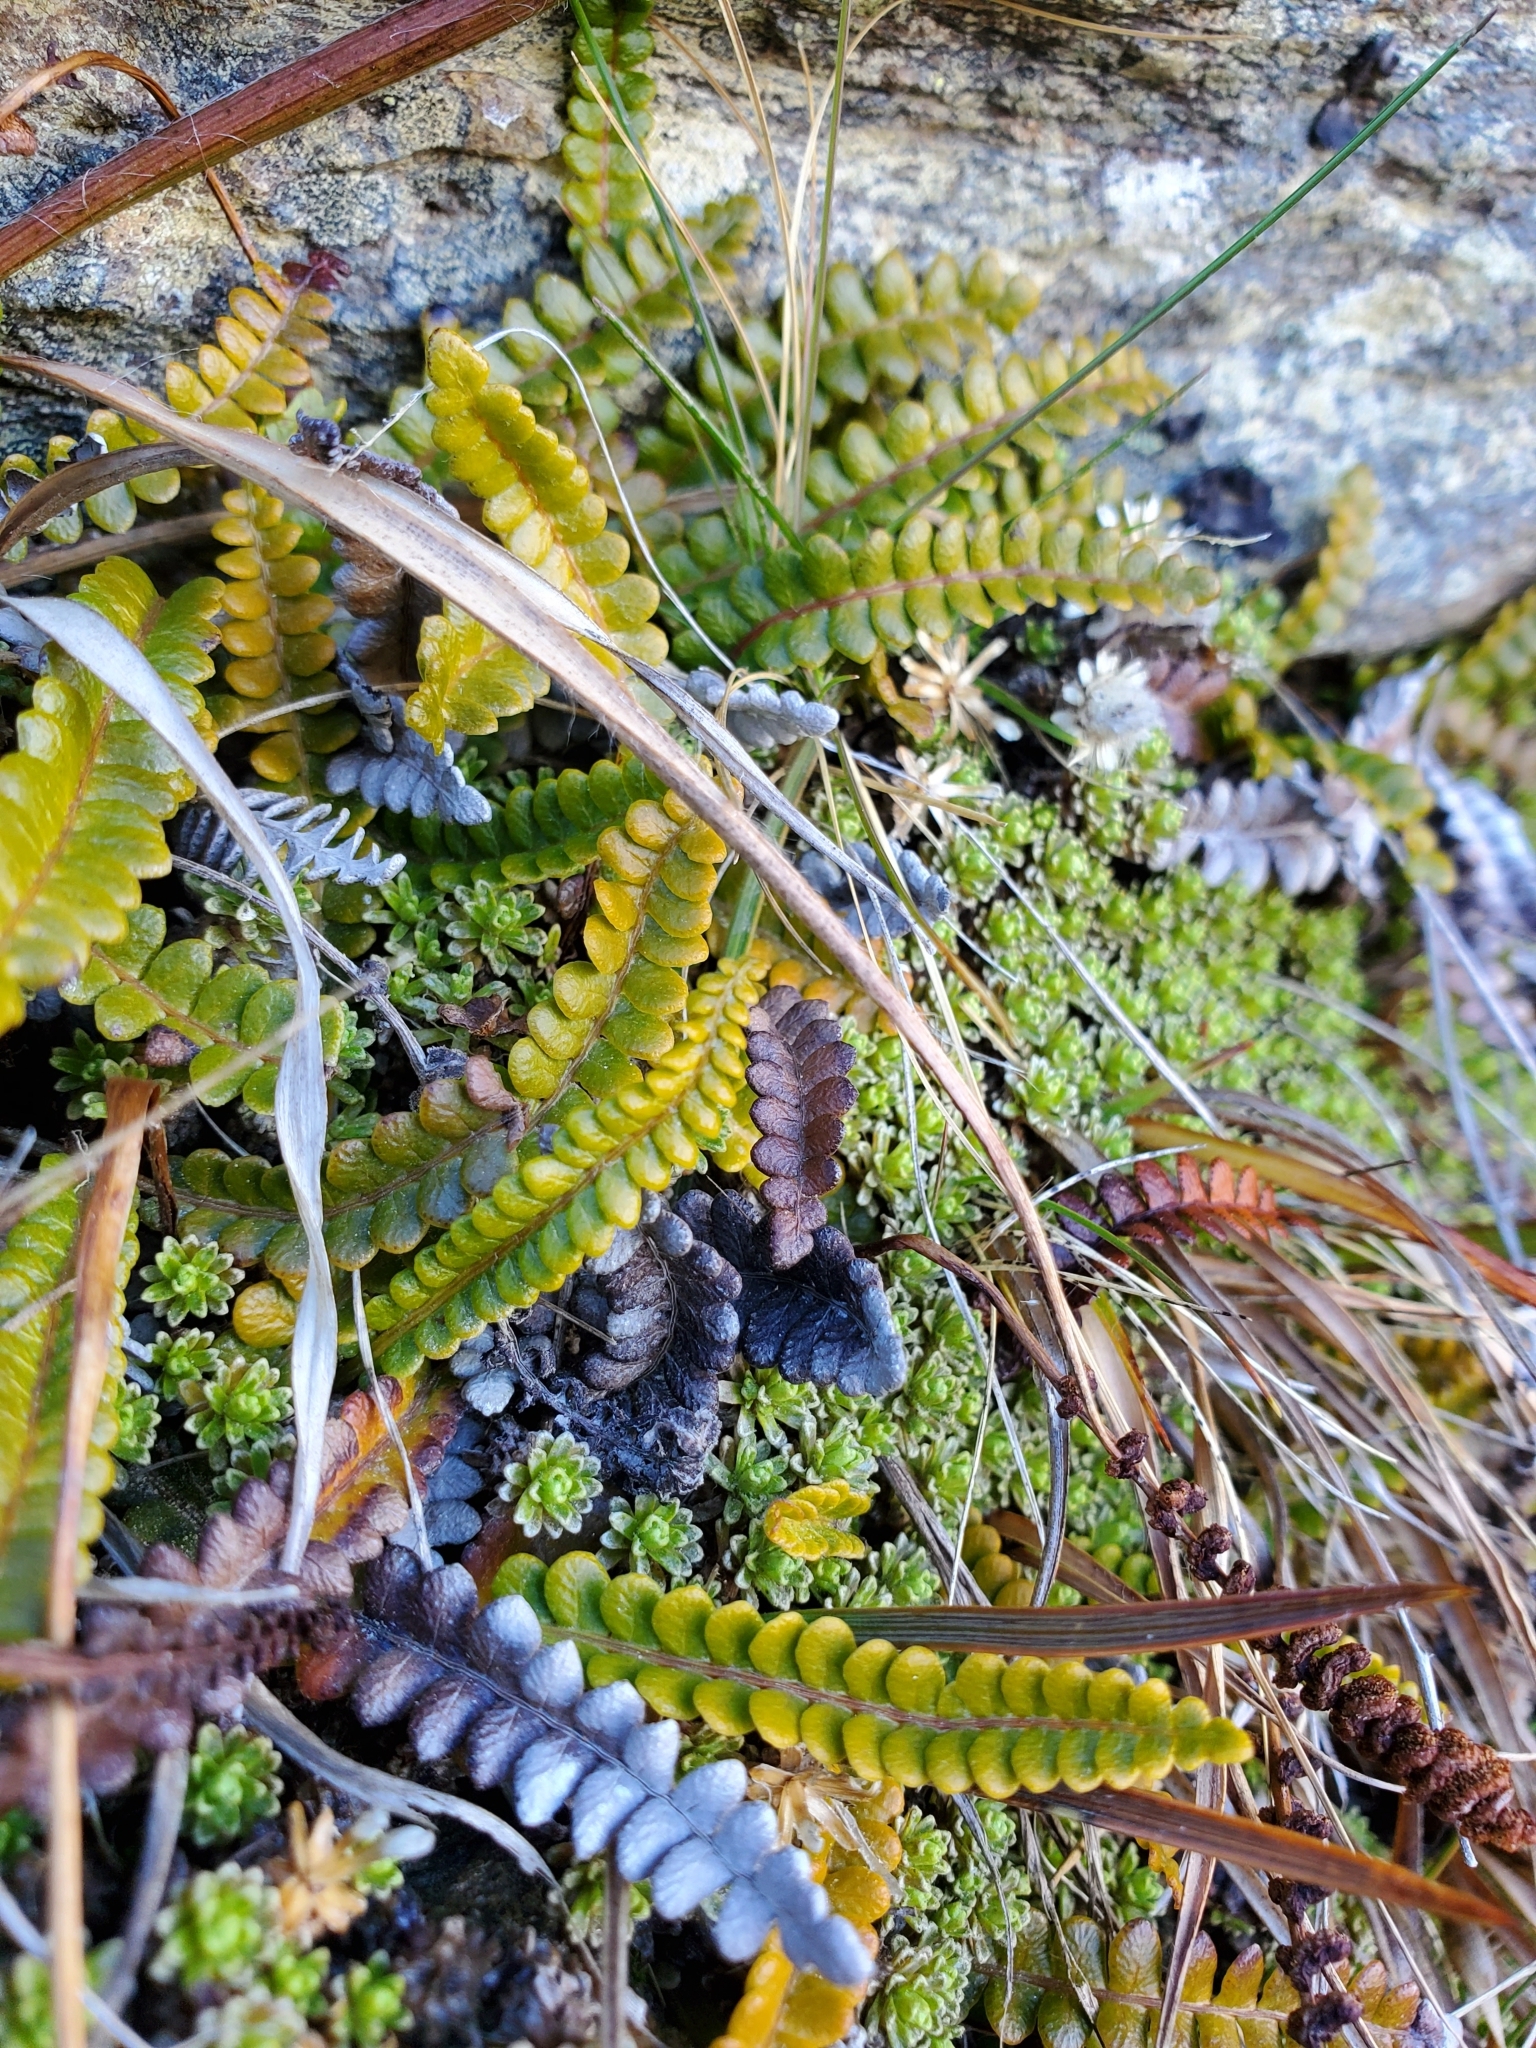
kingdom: Plantae
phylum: Tracheophyta
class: Polypodiopsida
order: Polypodiales
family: Blechnaceae
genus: Austroblechnum
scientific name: Austroblechnum penna-marina
